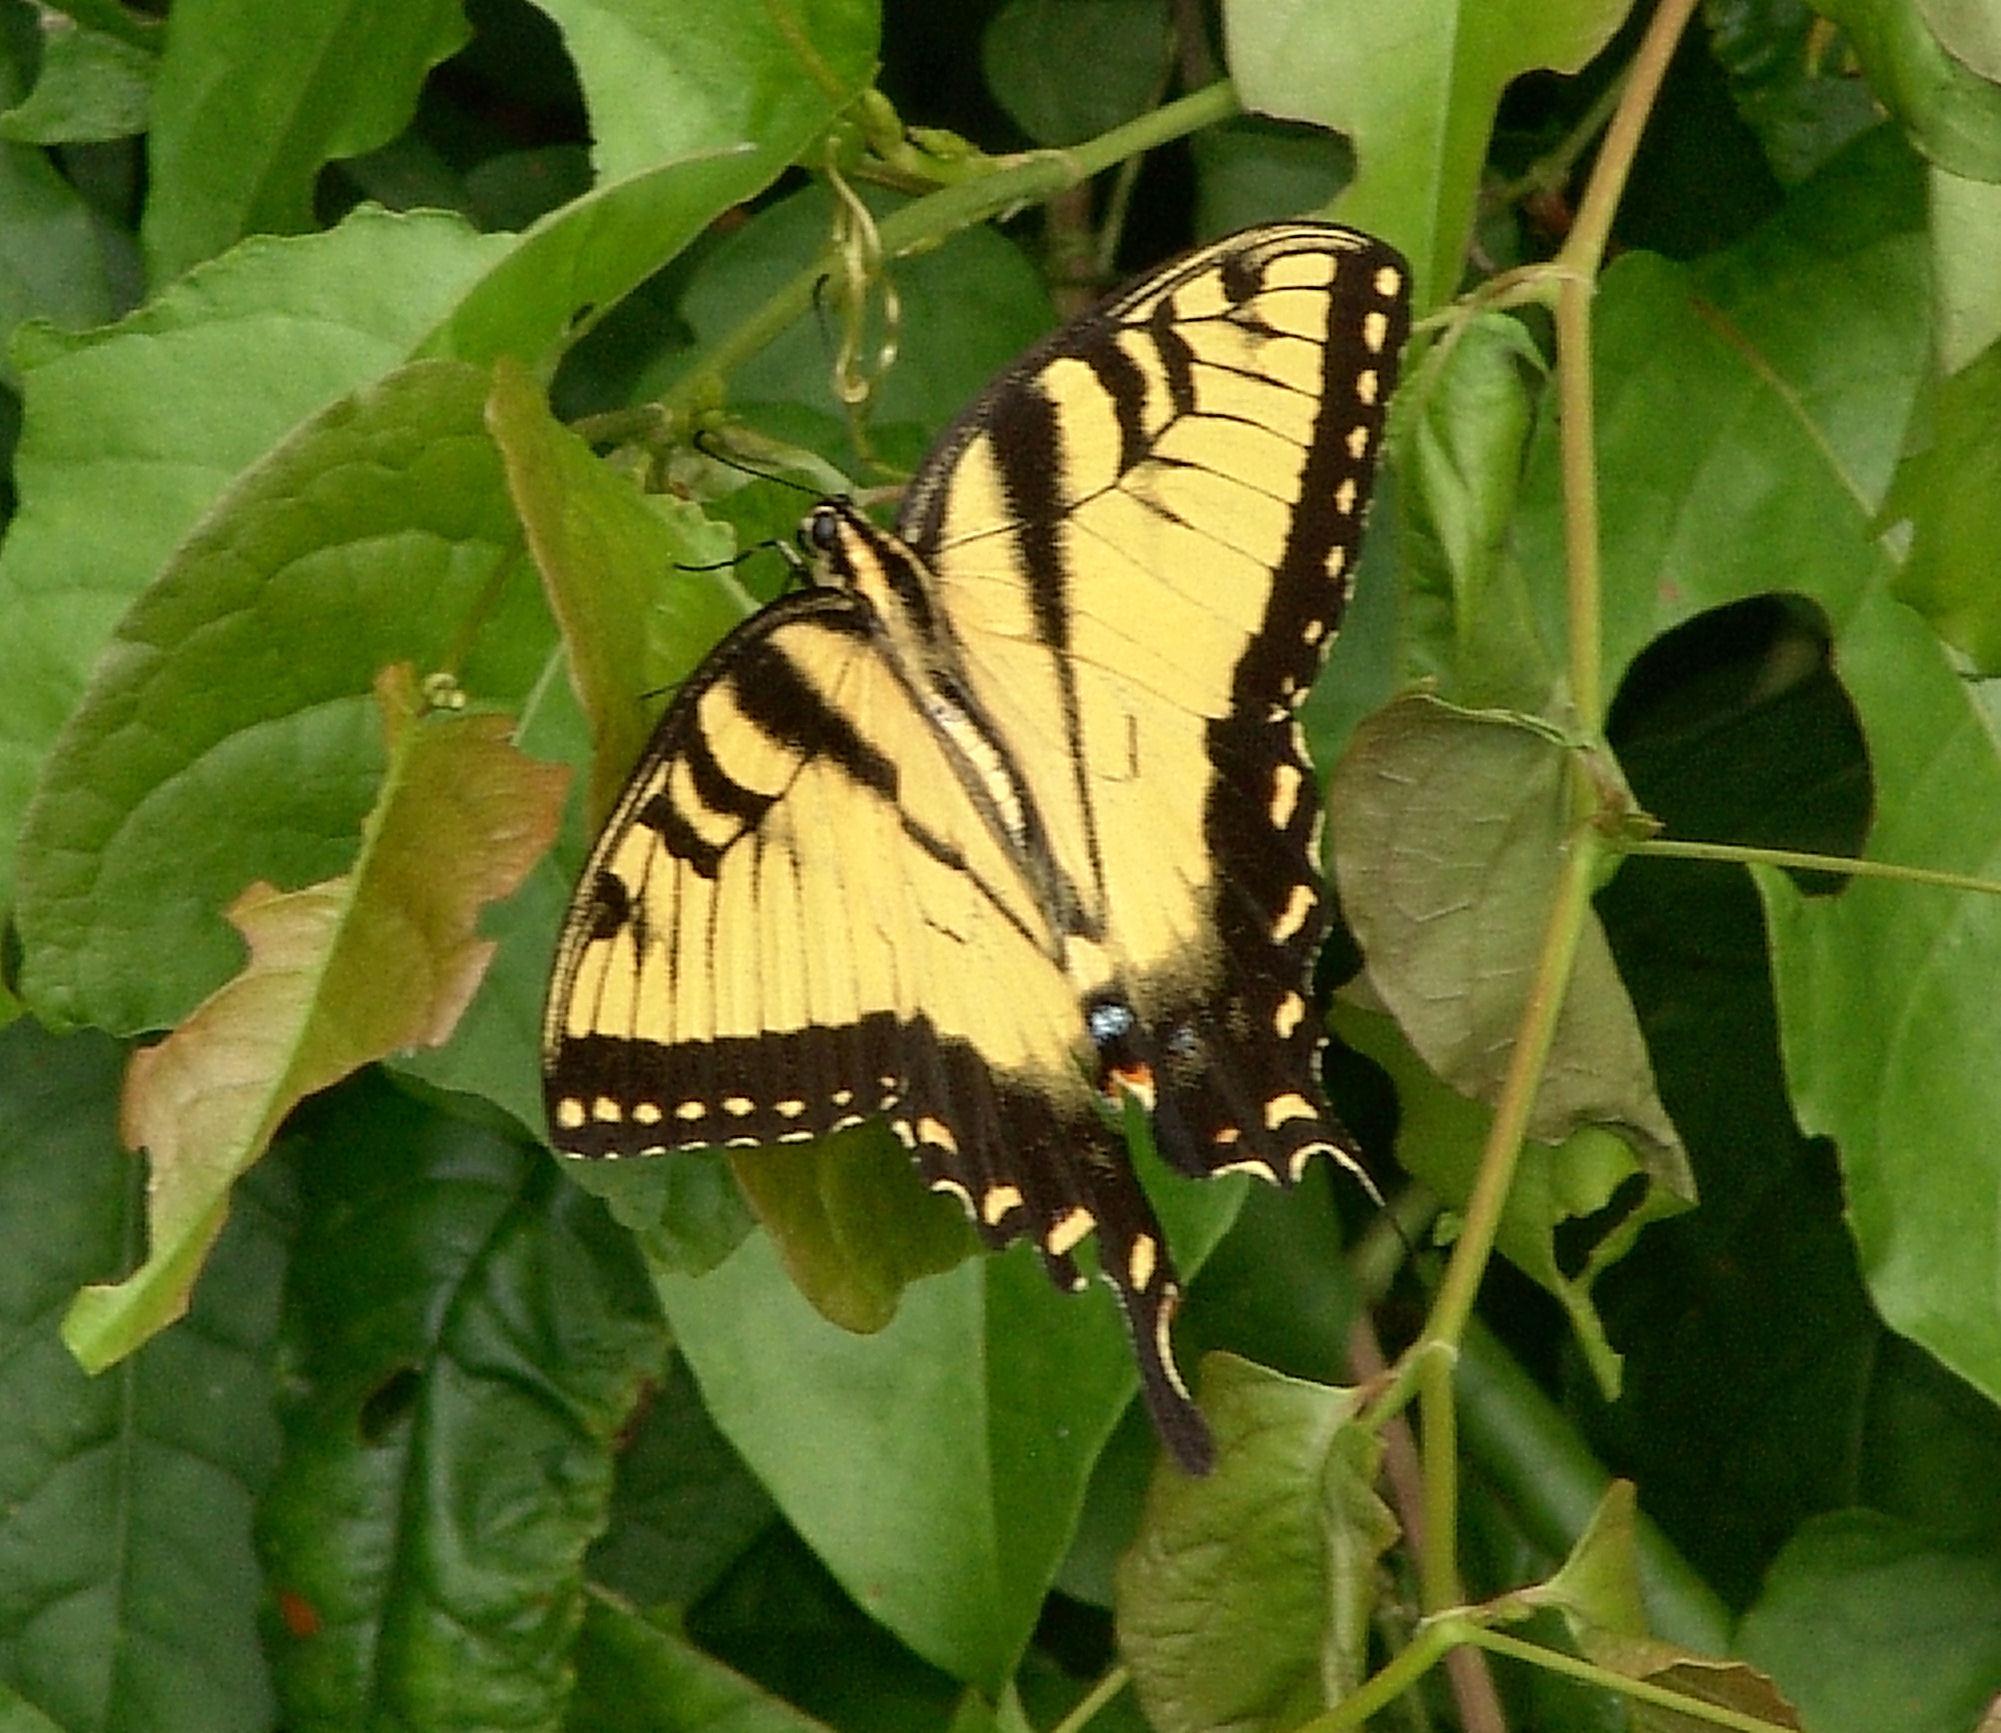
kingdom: Animalia
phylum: Arthropoda
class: Insecta
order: Lepidoptera
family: Papilionidae
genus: Papilio
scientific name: Papilio glaucus
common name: Tiger swallowtail
